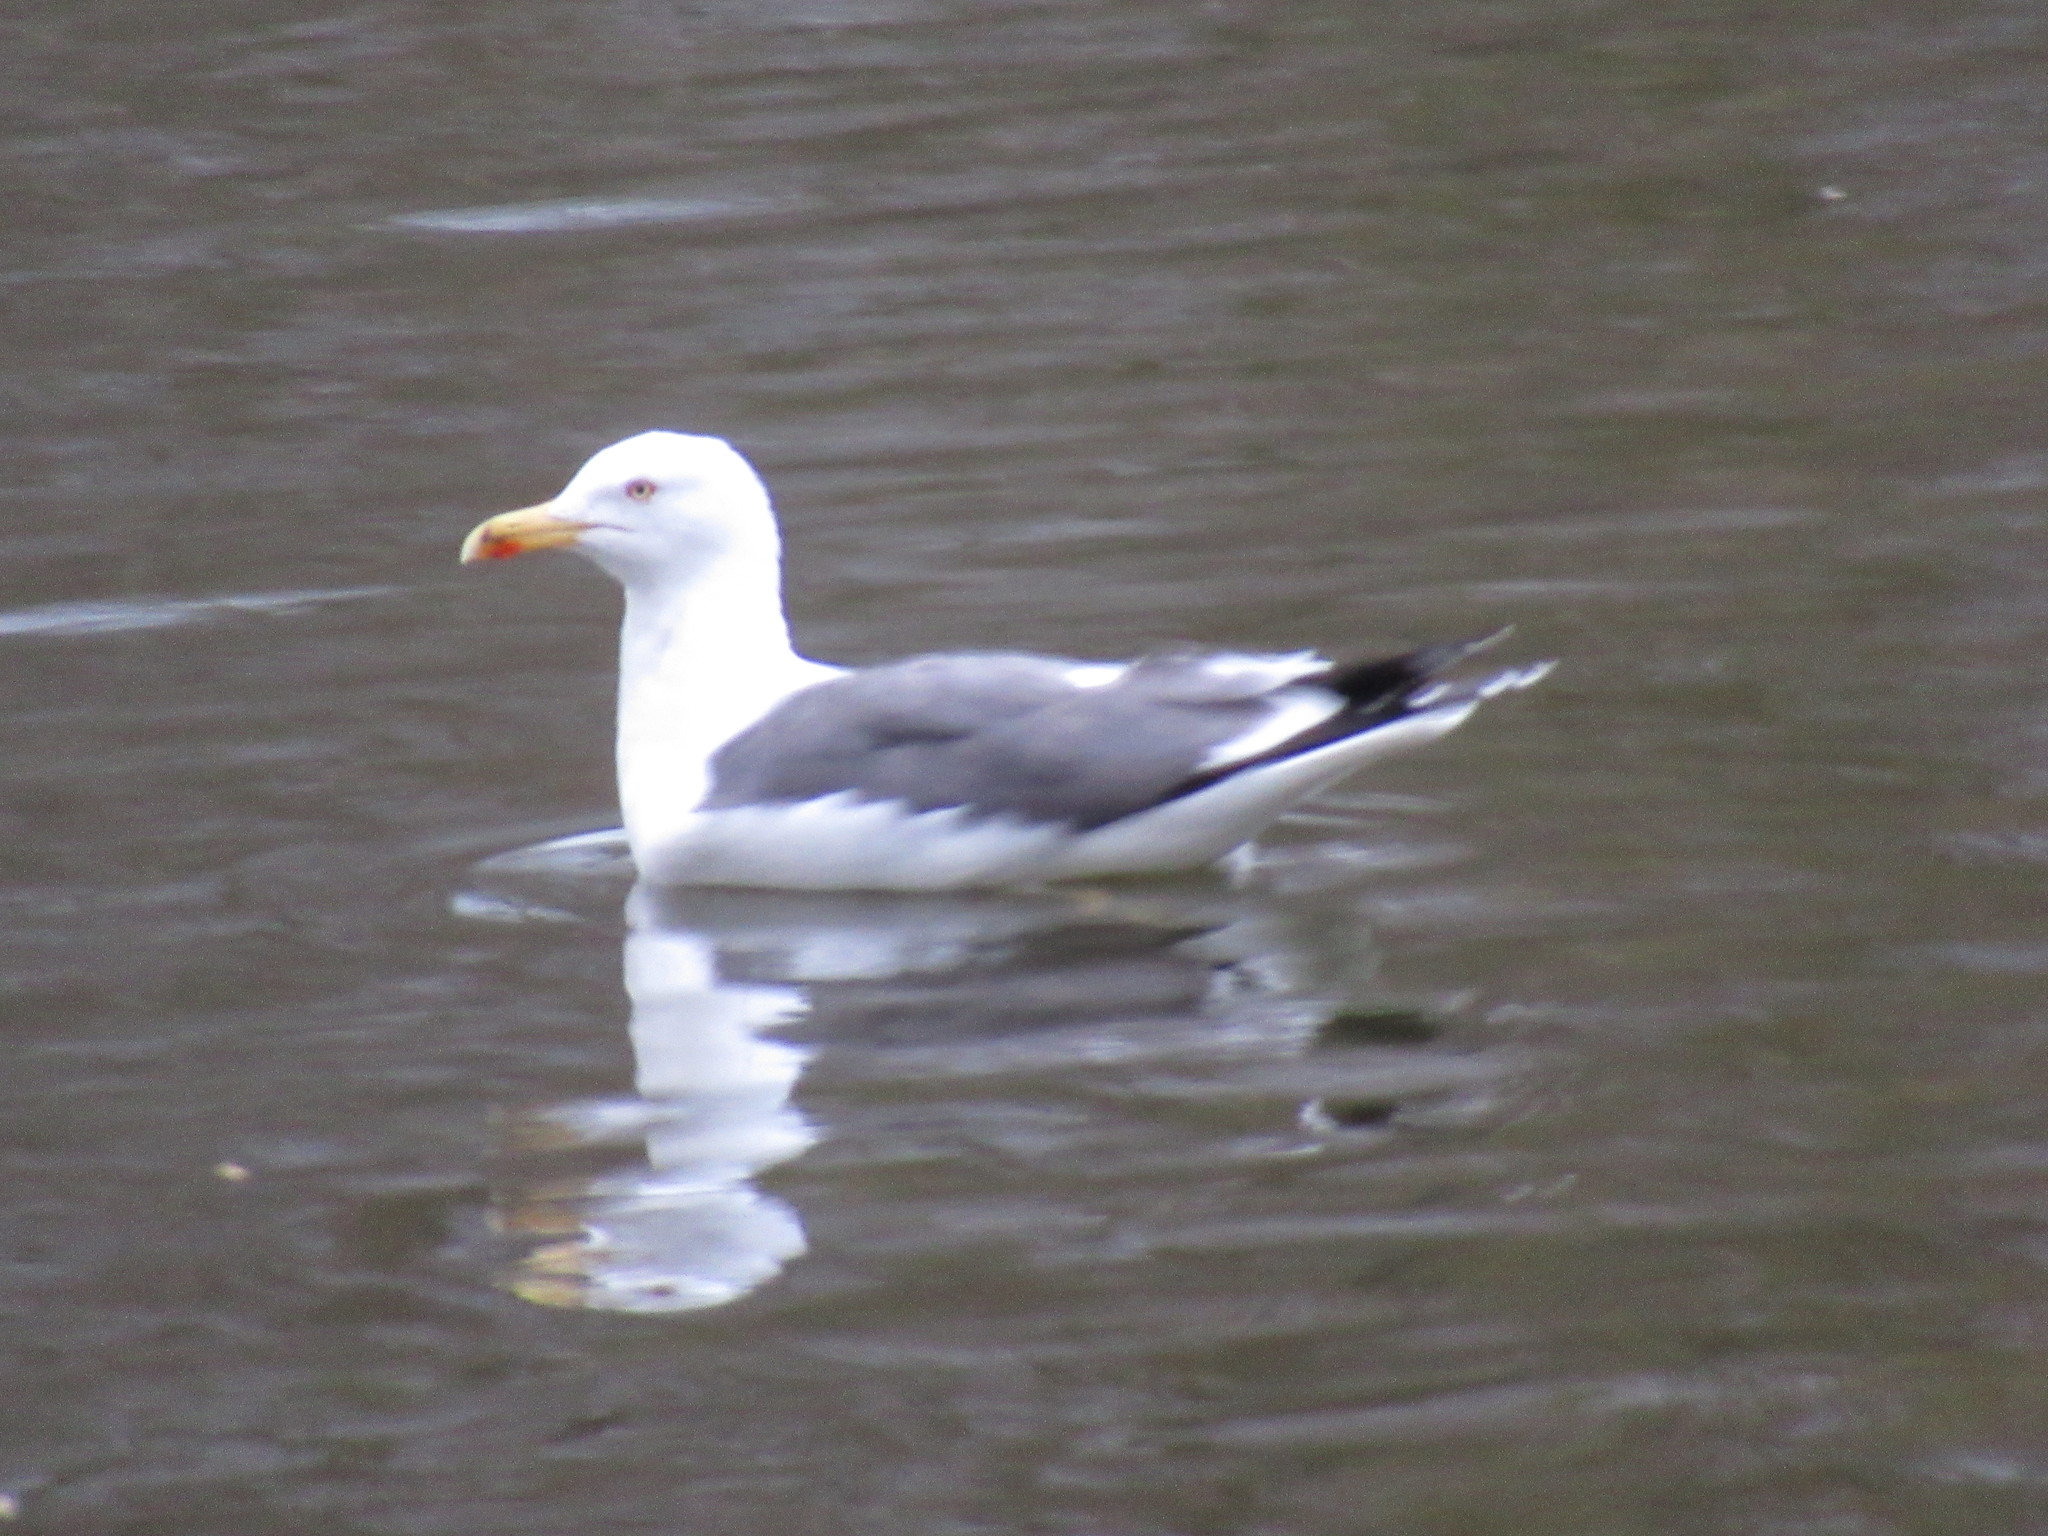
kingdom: Animalia
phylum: Chordata
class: Aves
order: Charadriiformes
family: Laridae
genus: Larus
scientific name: Larus argentatus
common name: Herring gull
